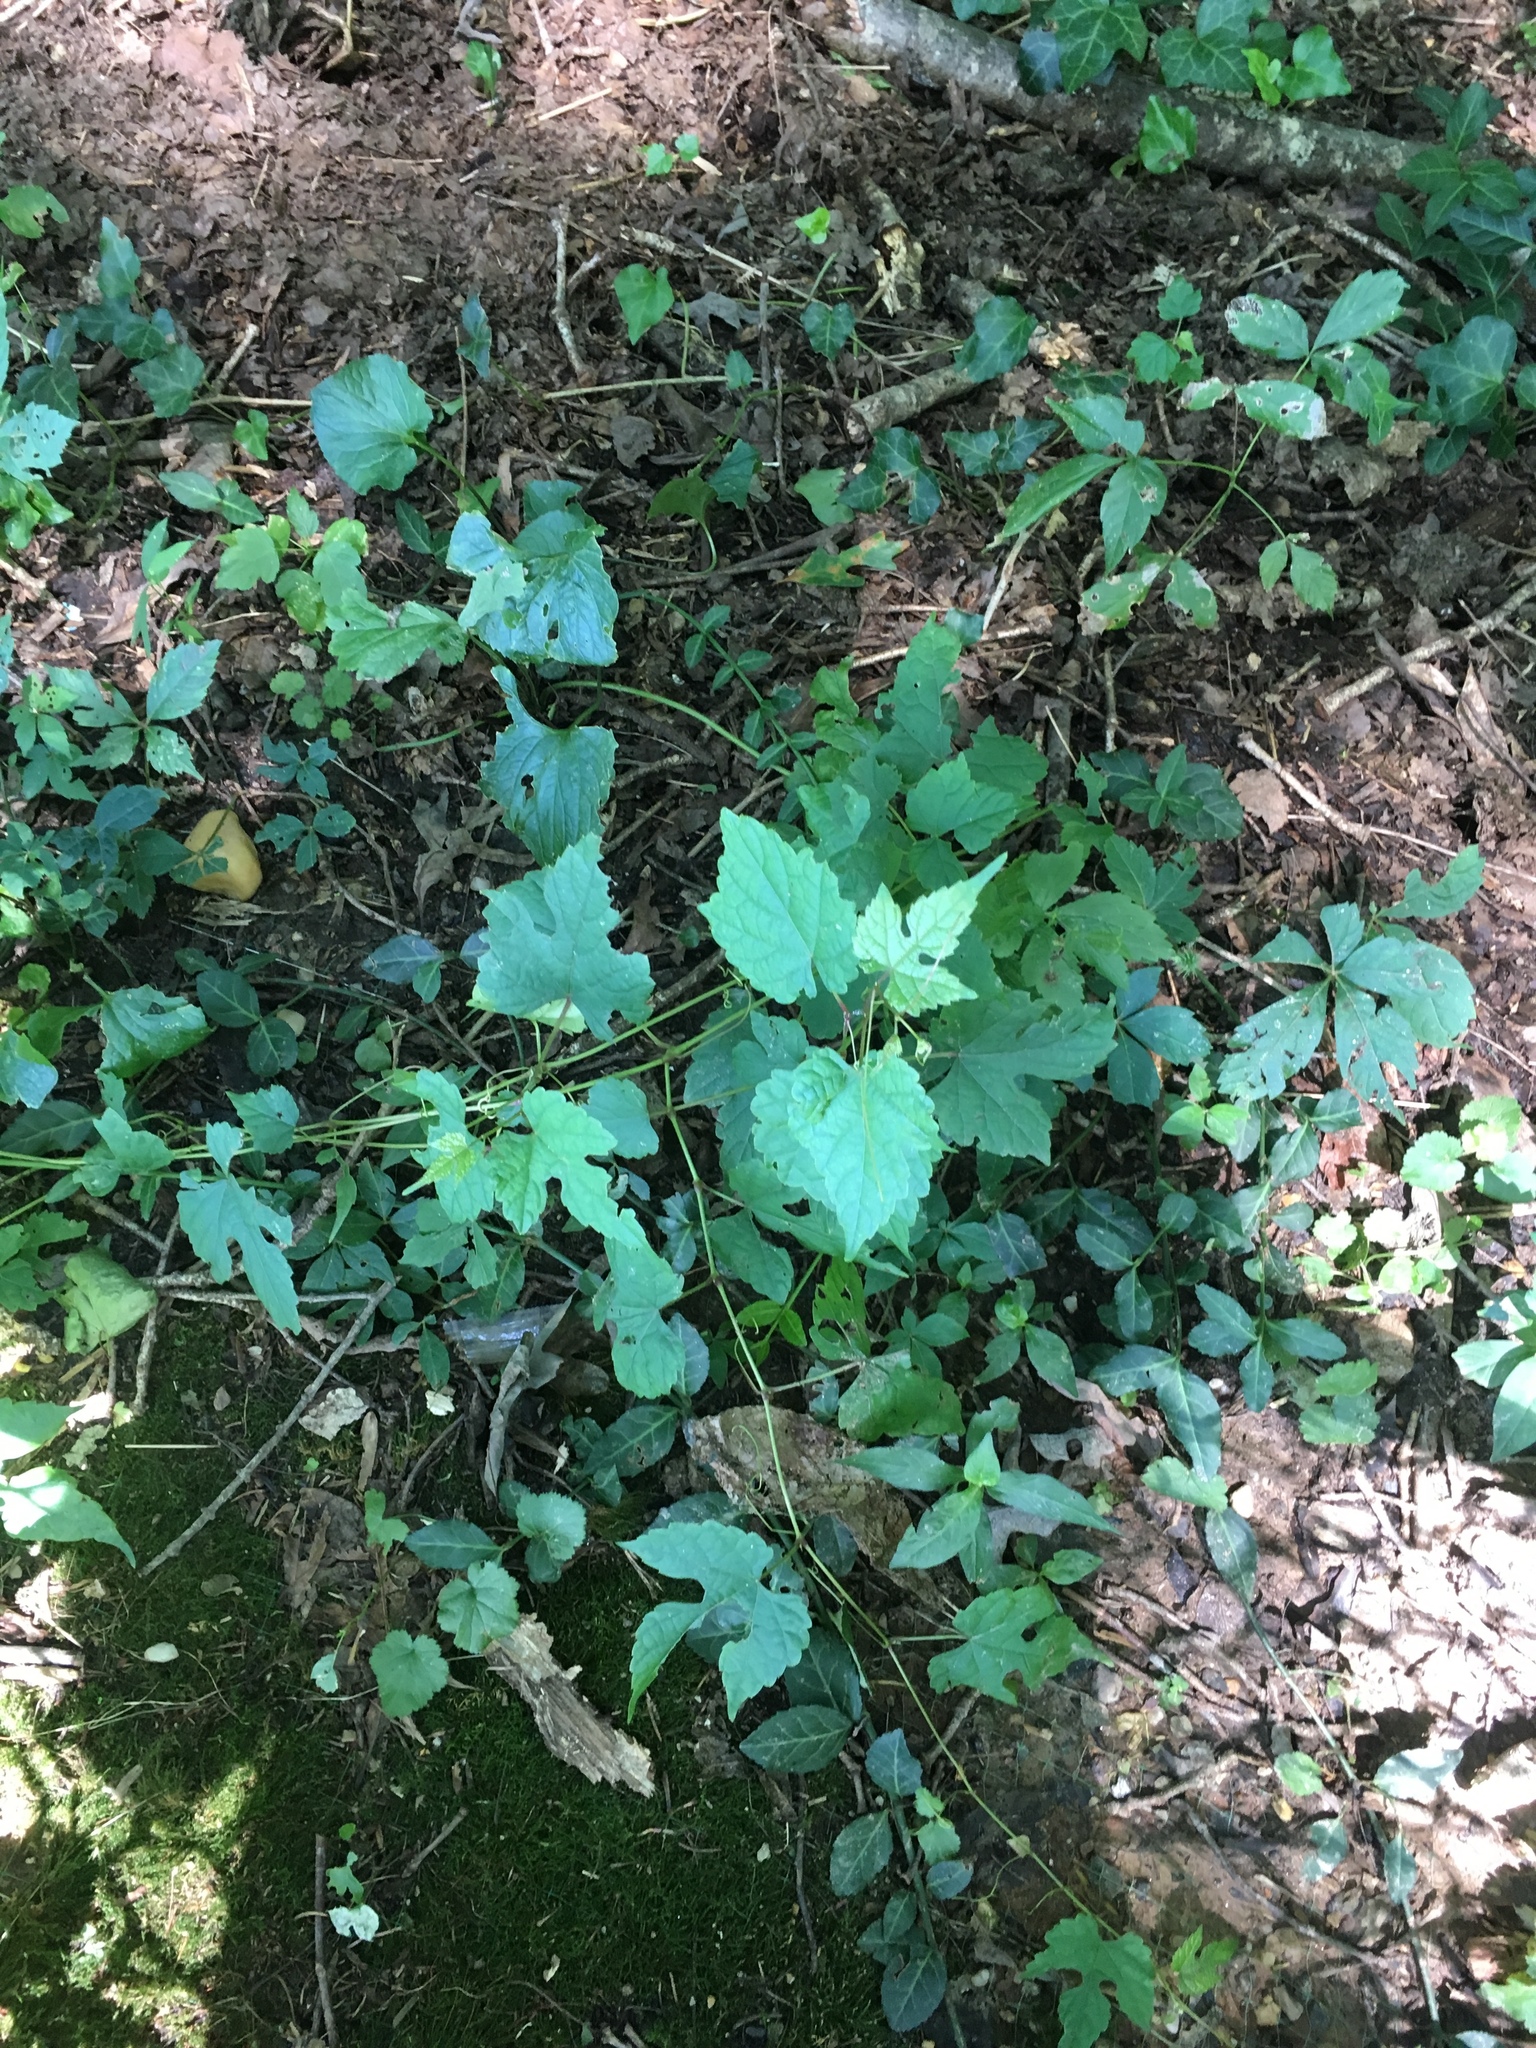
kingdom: Plantae
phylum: Tracheophyta
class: Magnoliopsida
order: Vitales
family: Vitaceae
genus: Ampelopsis
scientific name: Ampelopsis glandulosa
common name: Amur peppervine
